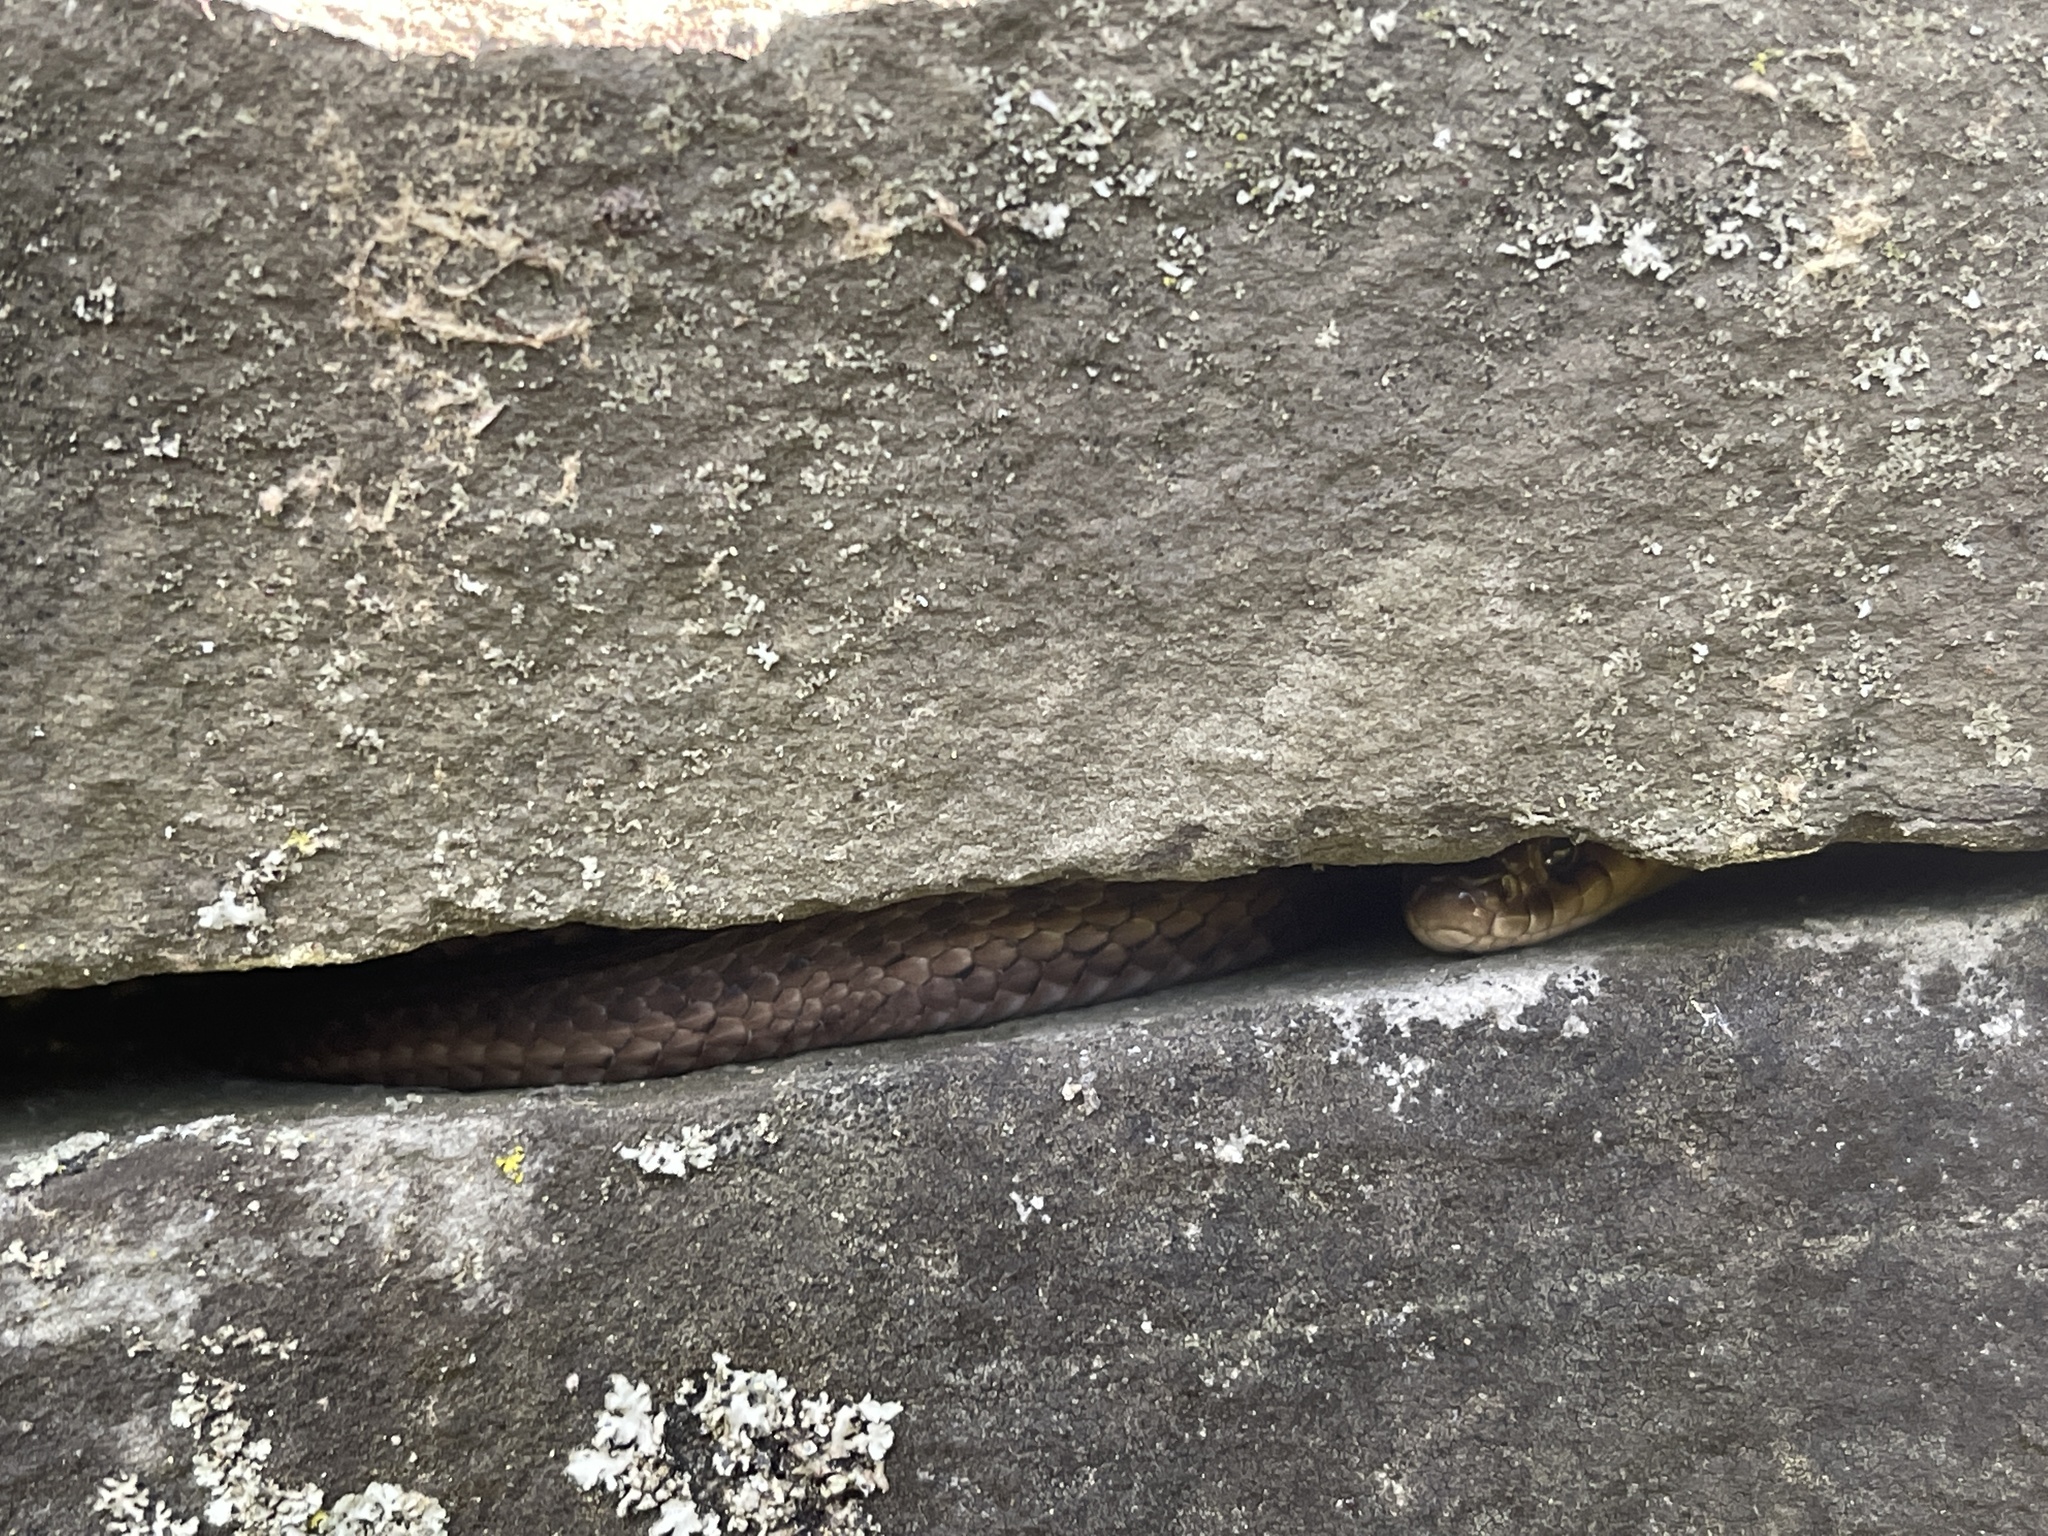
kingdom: Animalia
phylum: Chordata
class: Squamata
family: Colubridae
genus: Thamnophis
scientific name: Thamnophis sirtalis
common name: Common garter snake
